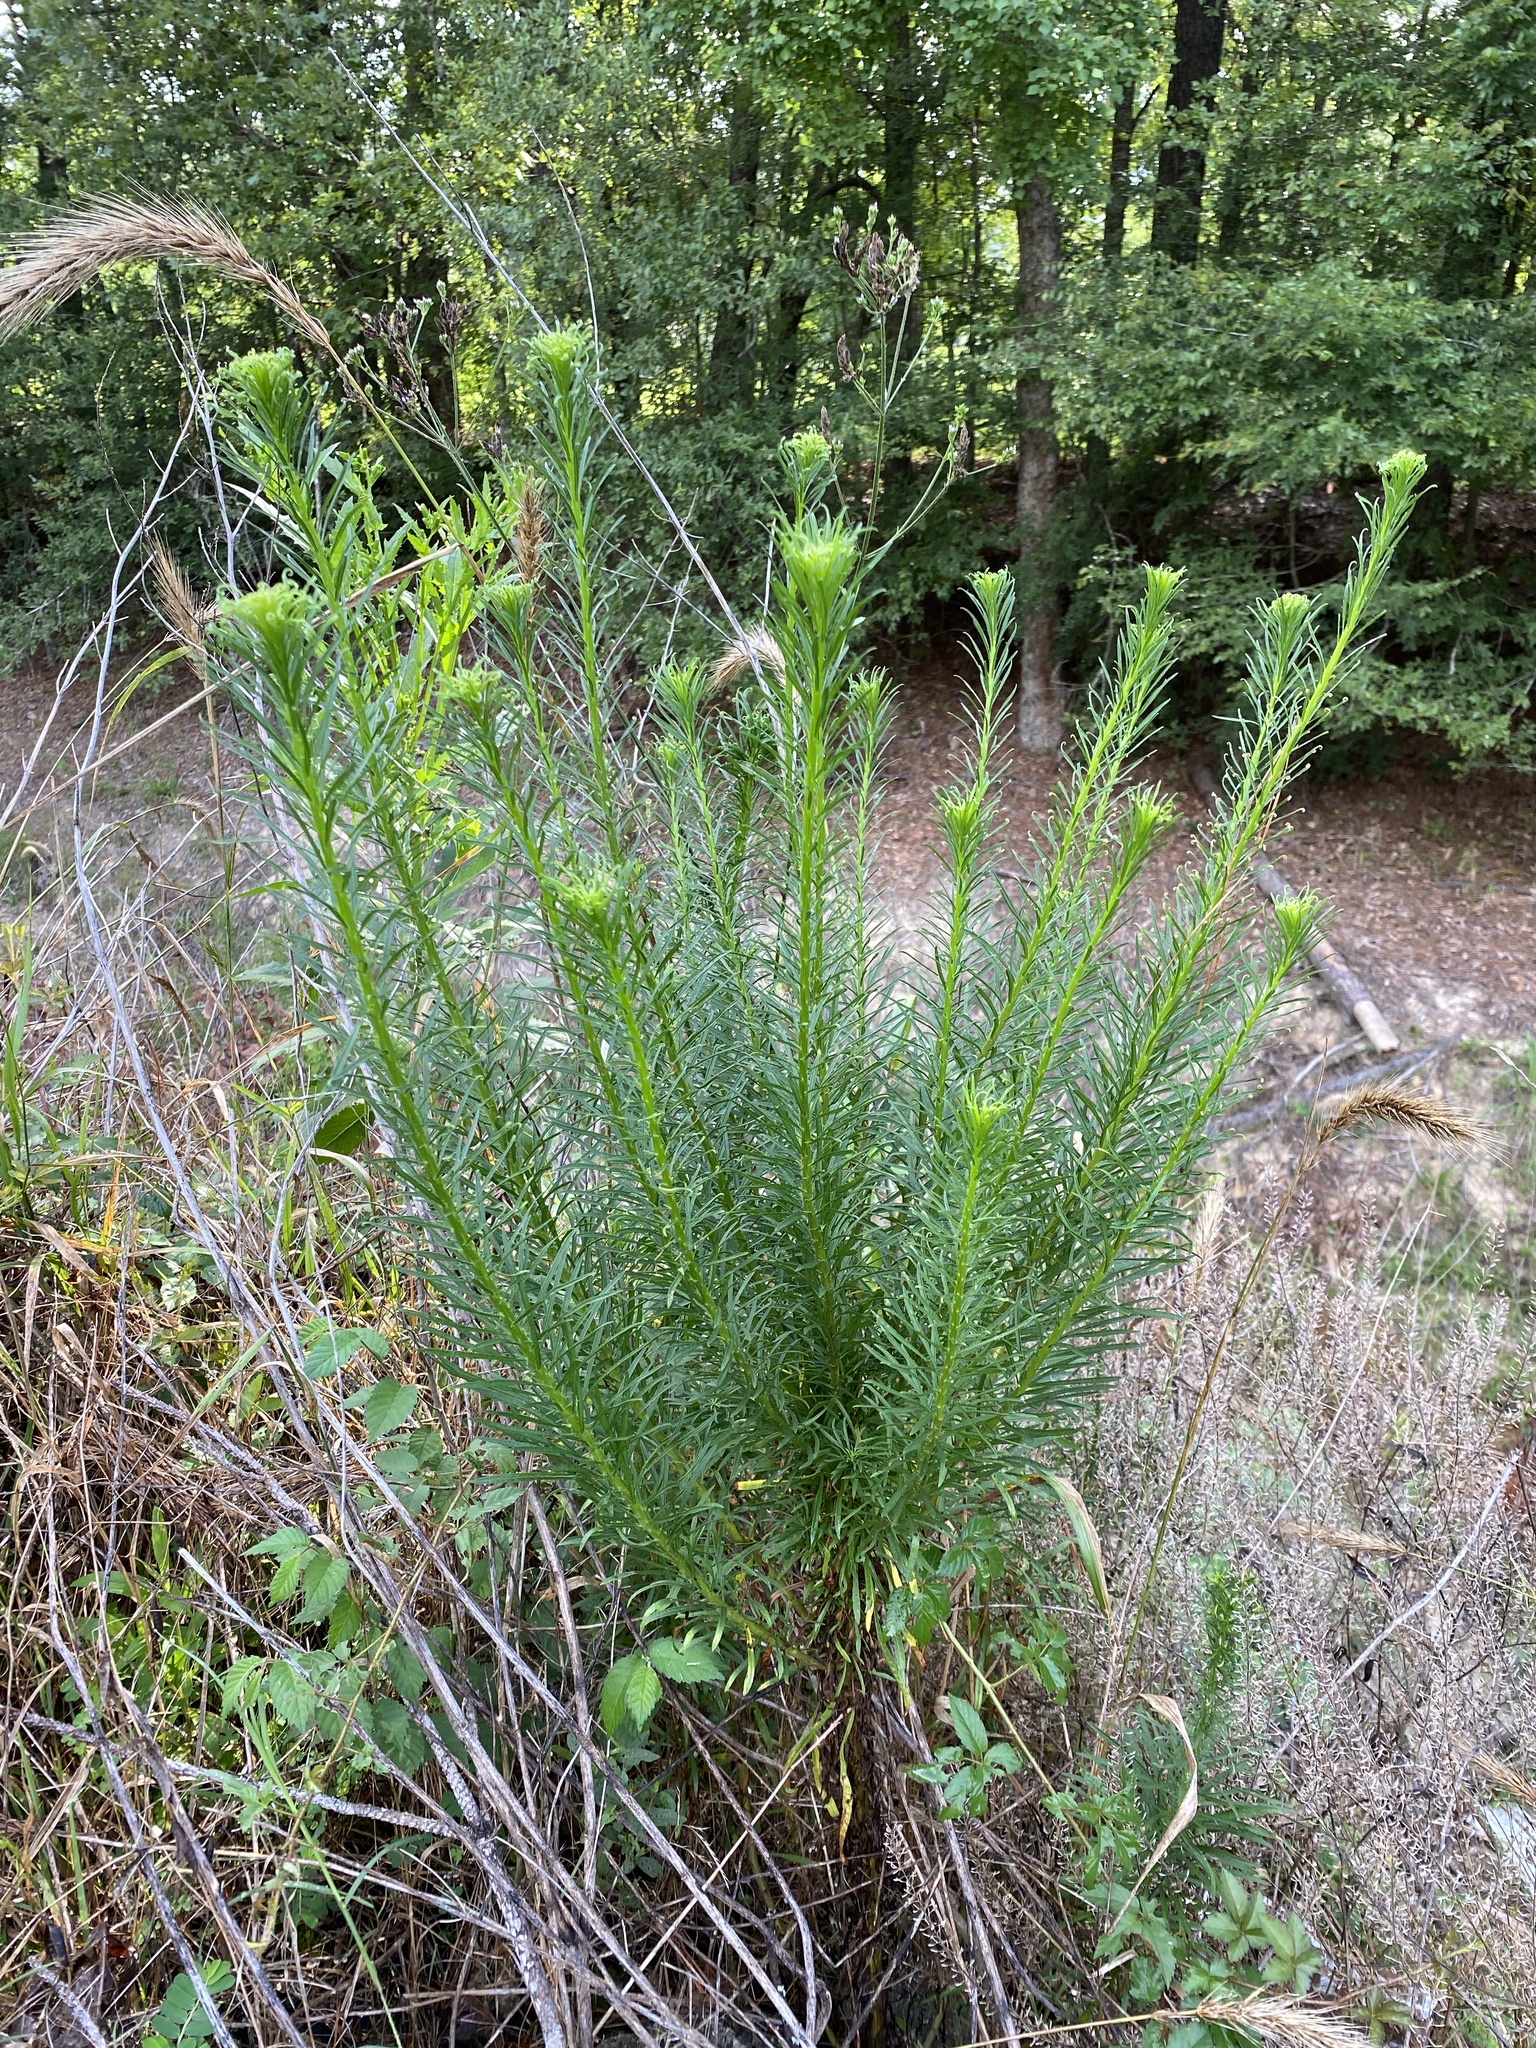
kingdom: Plantae
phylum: Tracheophyta
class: Magnoliopsida
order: Asterales
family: Asteraceae
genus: Erigeron
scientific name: Erigeron canadensis
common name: Canadian fleabane
